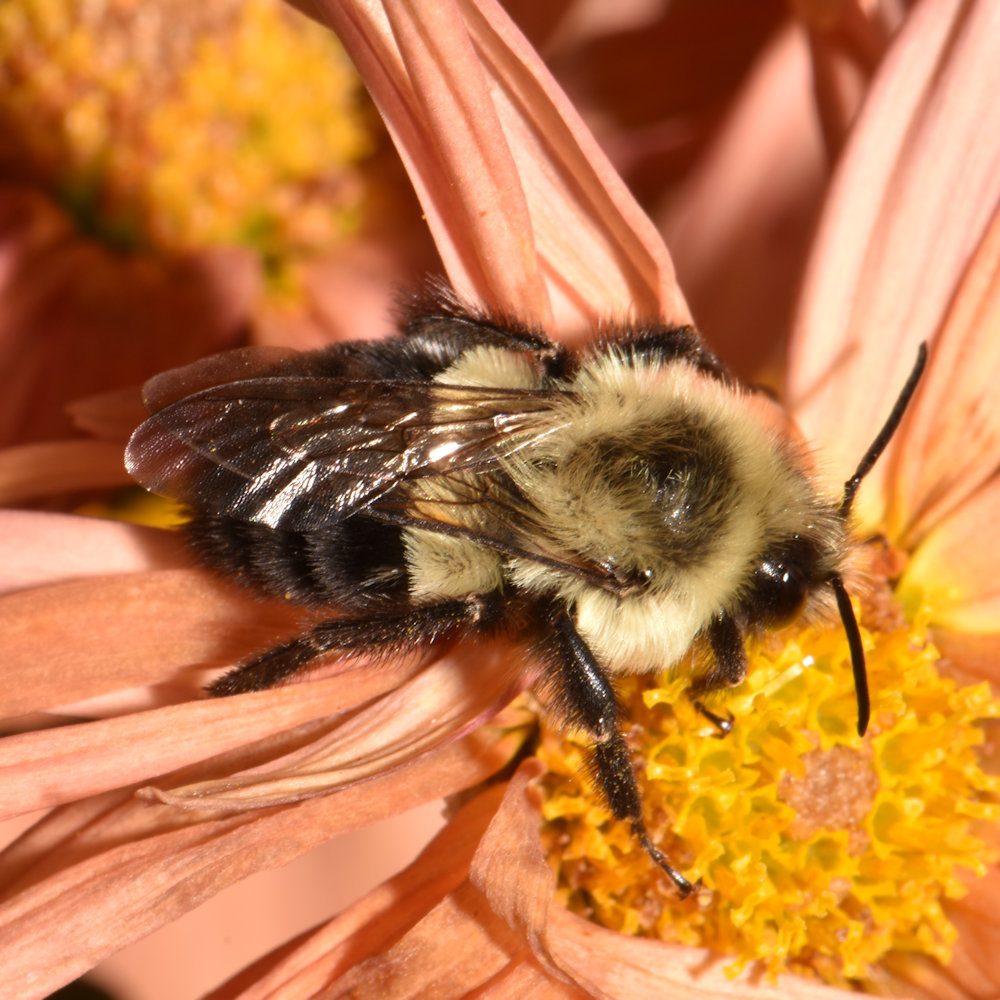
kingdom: Animalia
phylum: Arthropoda
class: Insecta
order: Hymenoptera
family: Apidae
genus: Bombus
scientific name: Bombus impatiens
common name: Common eastern bumble bee
